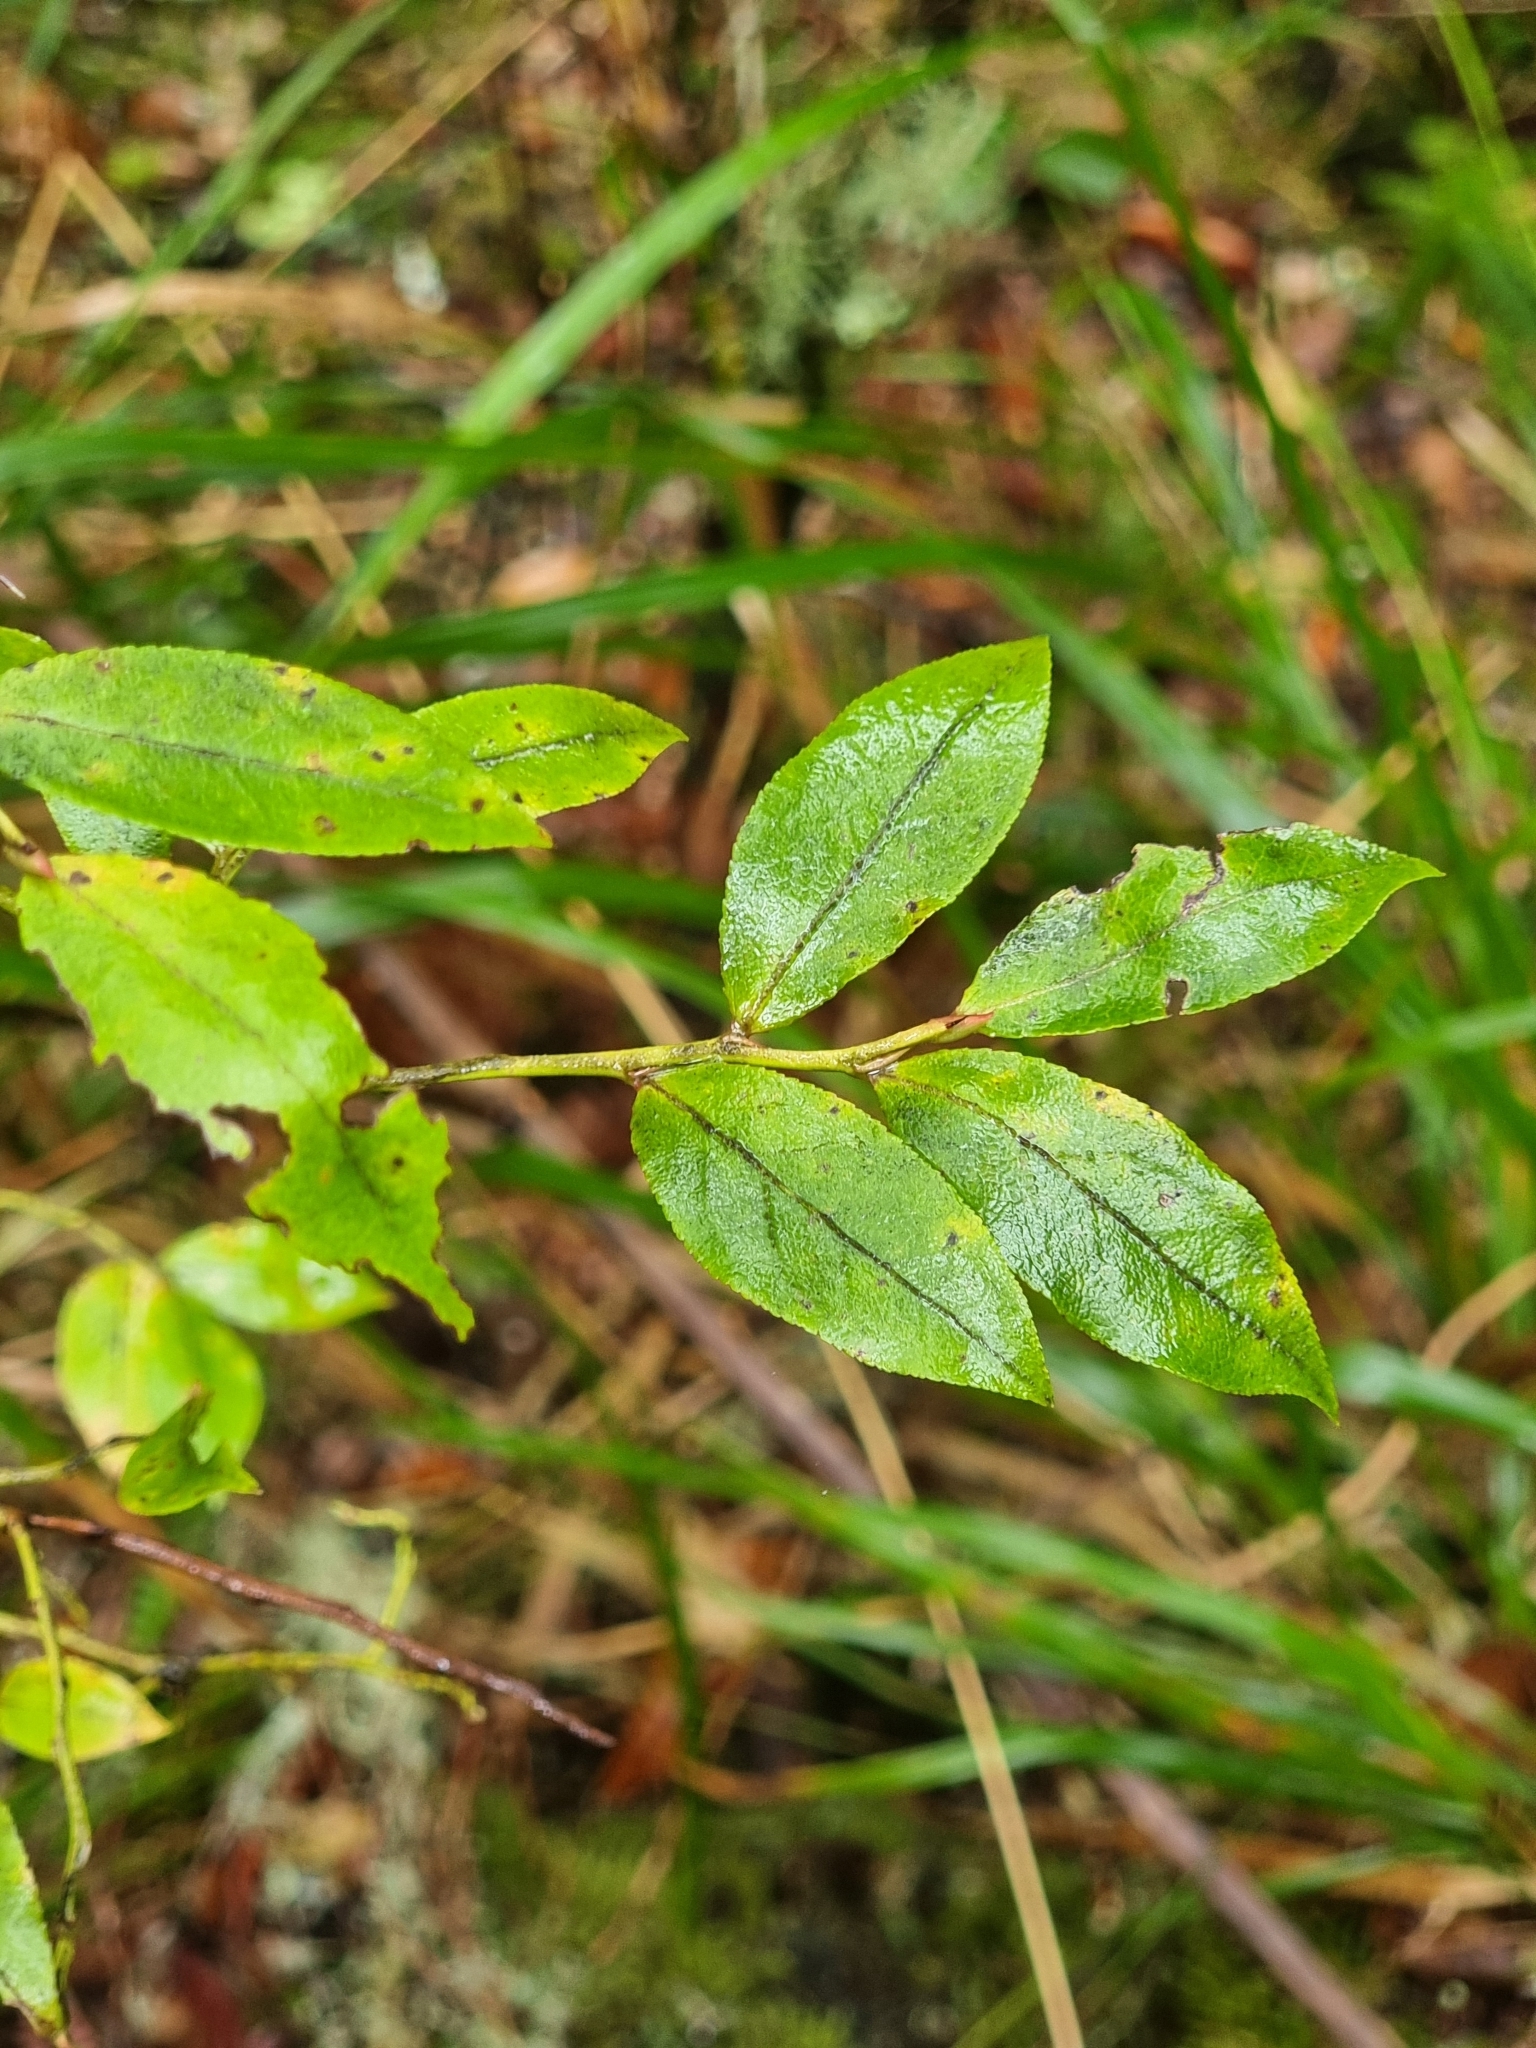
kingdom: Plantae
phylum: Tracheophyta
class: Magnoliopsida
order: Ericales
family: Ericaceae
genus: Vaccinium
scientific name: Vaccinium padifolium
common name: Madeiran blueberry
